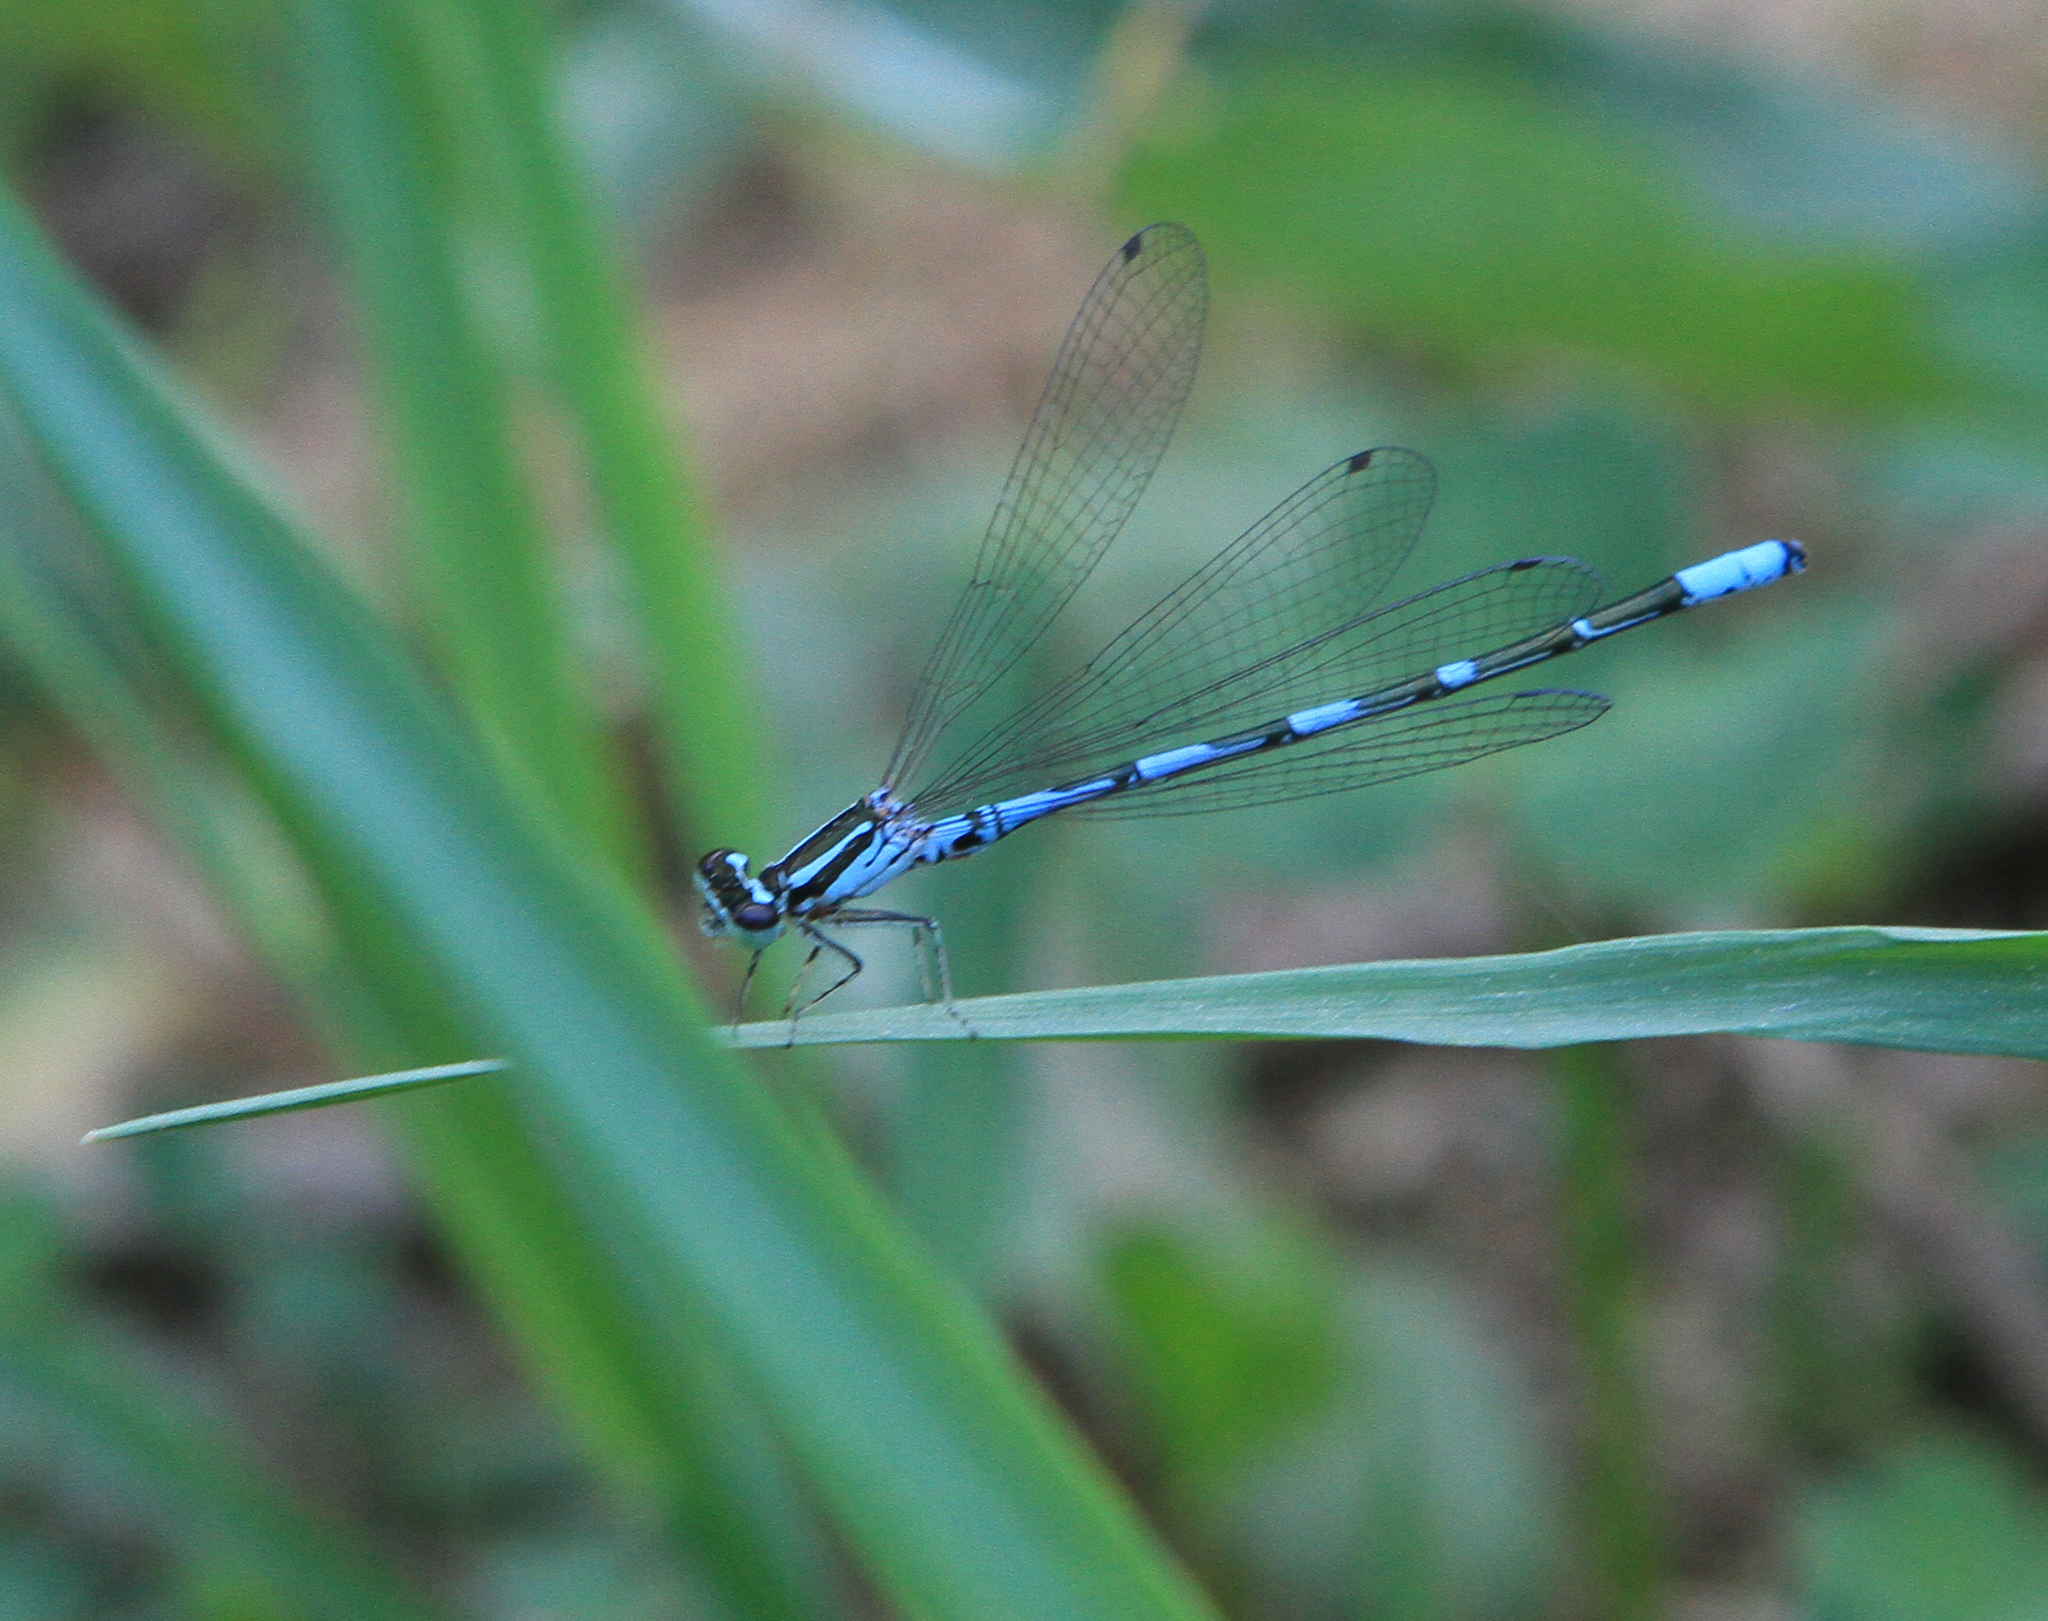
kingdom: Animalia
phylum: Arthropoda
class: Insecta
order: Odonata
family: Coenagrionidae
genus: Coenagrion
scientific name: Coenagrion johanssoni
